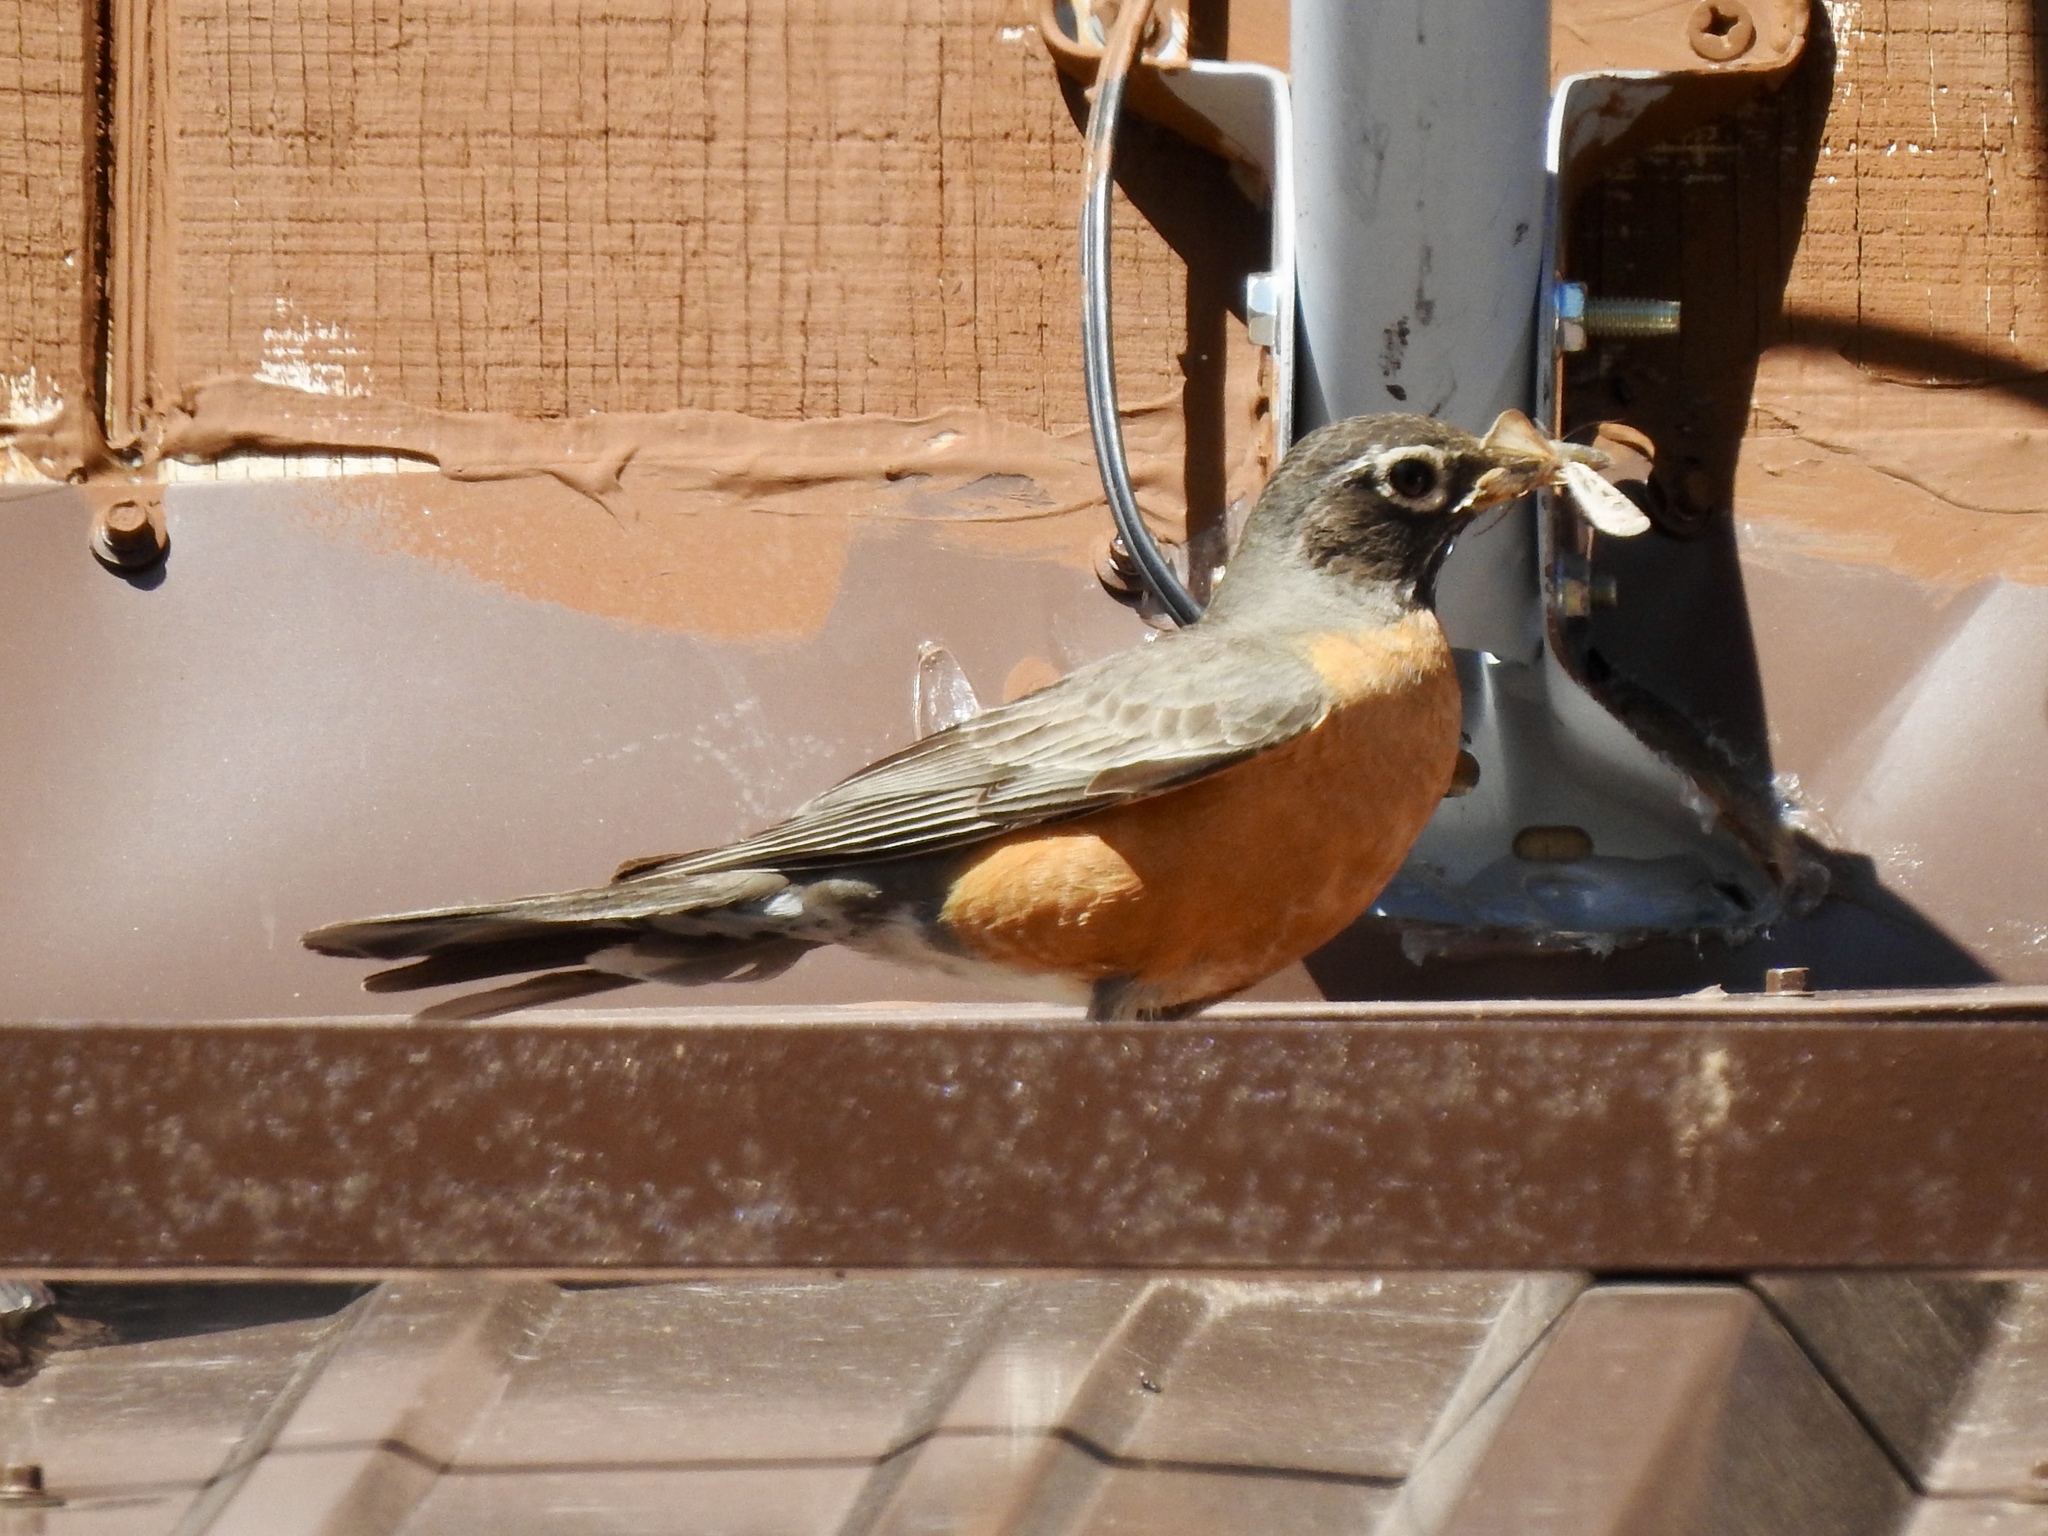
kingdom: Animalia
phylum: Chordata
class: Aves
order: Passeriformes
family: Turdidae
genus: Turdus
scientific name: Turdus migratorius
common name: American robin
